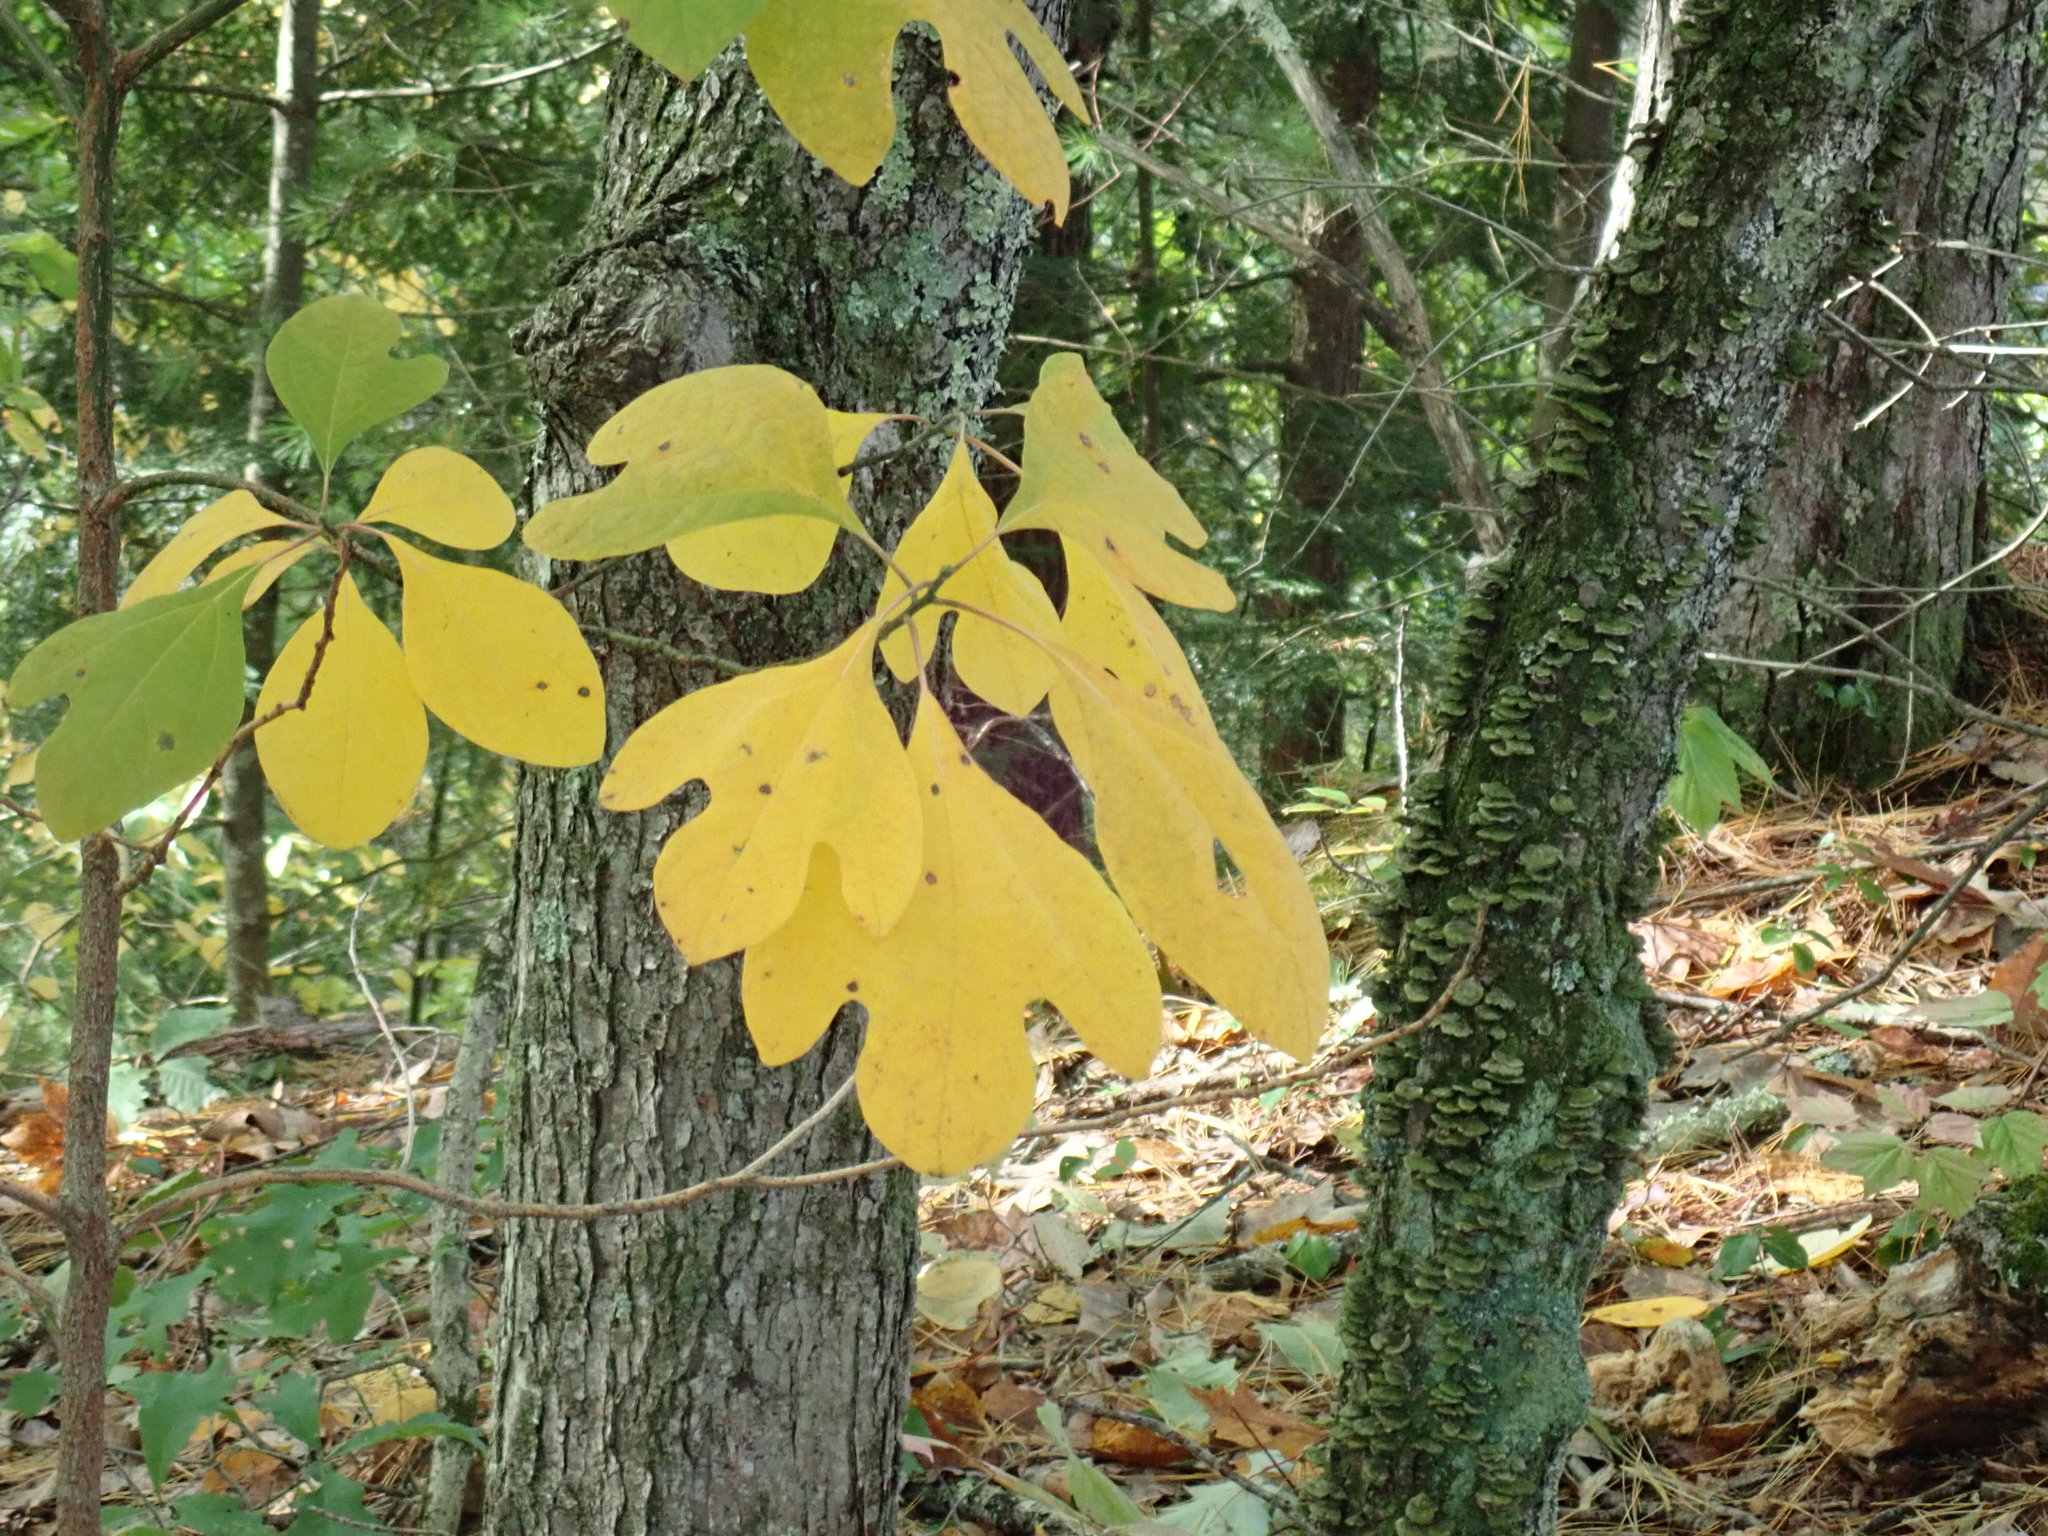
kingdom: Plantae
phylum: Tracheophyta
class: Magnoliopsida
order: Laurales
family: Lauraceae
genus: Sassafras
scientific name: Sassafras albidum
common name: Sassafras
